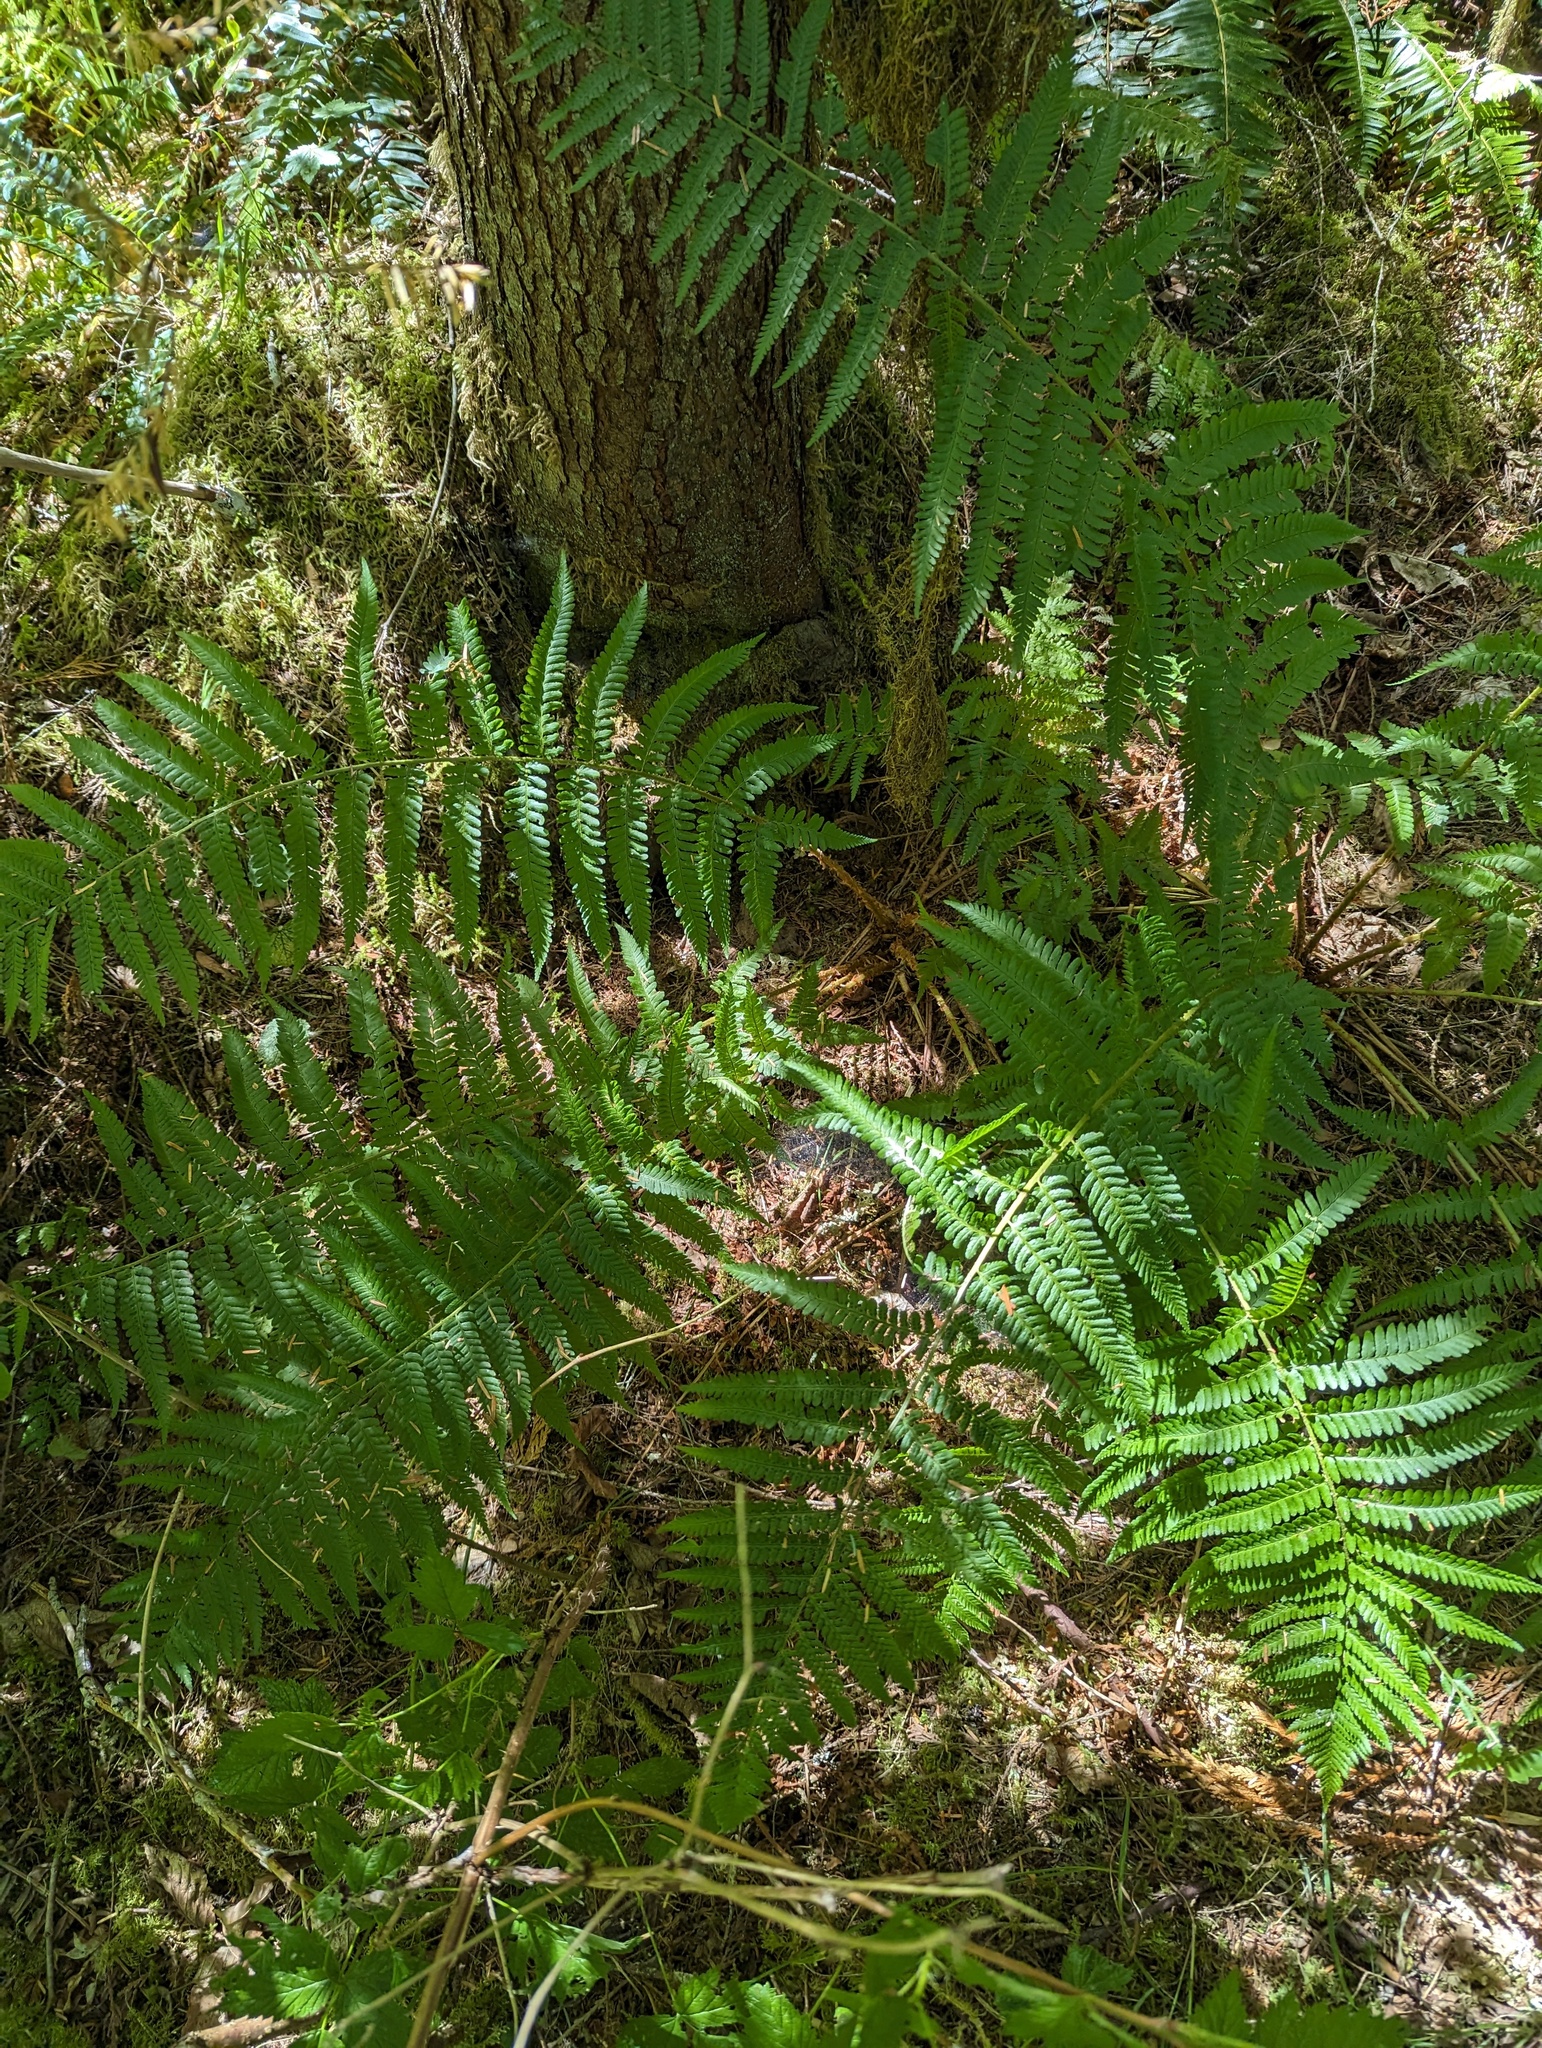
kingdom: Plantae
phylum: Tracheophyta
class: Polypodiopsida
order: Polypodiales
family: Dryopteridaceae
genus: Dryopteris
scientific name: Dryopteris filix-mas
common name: Male fern
